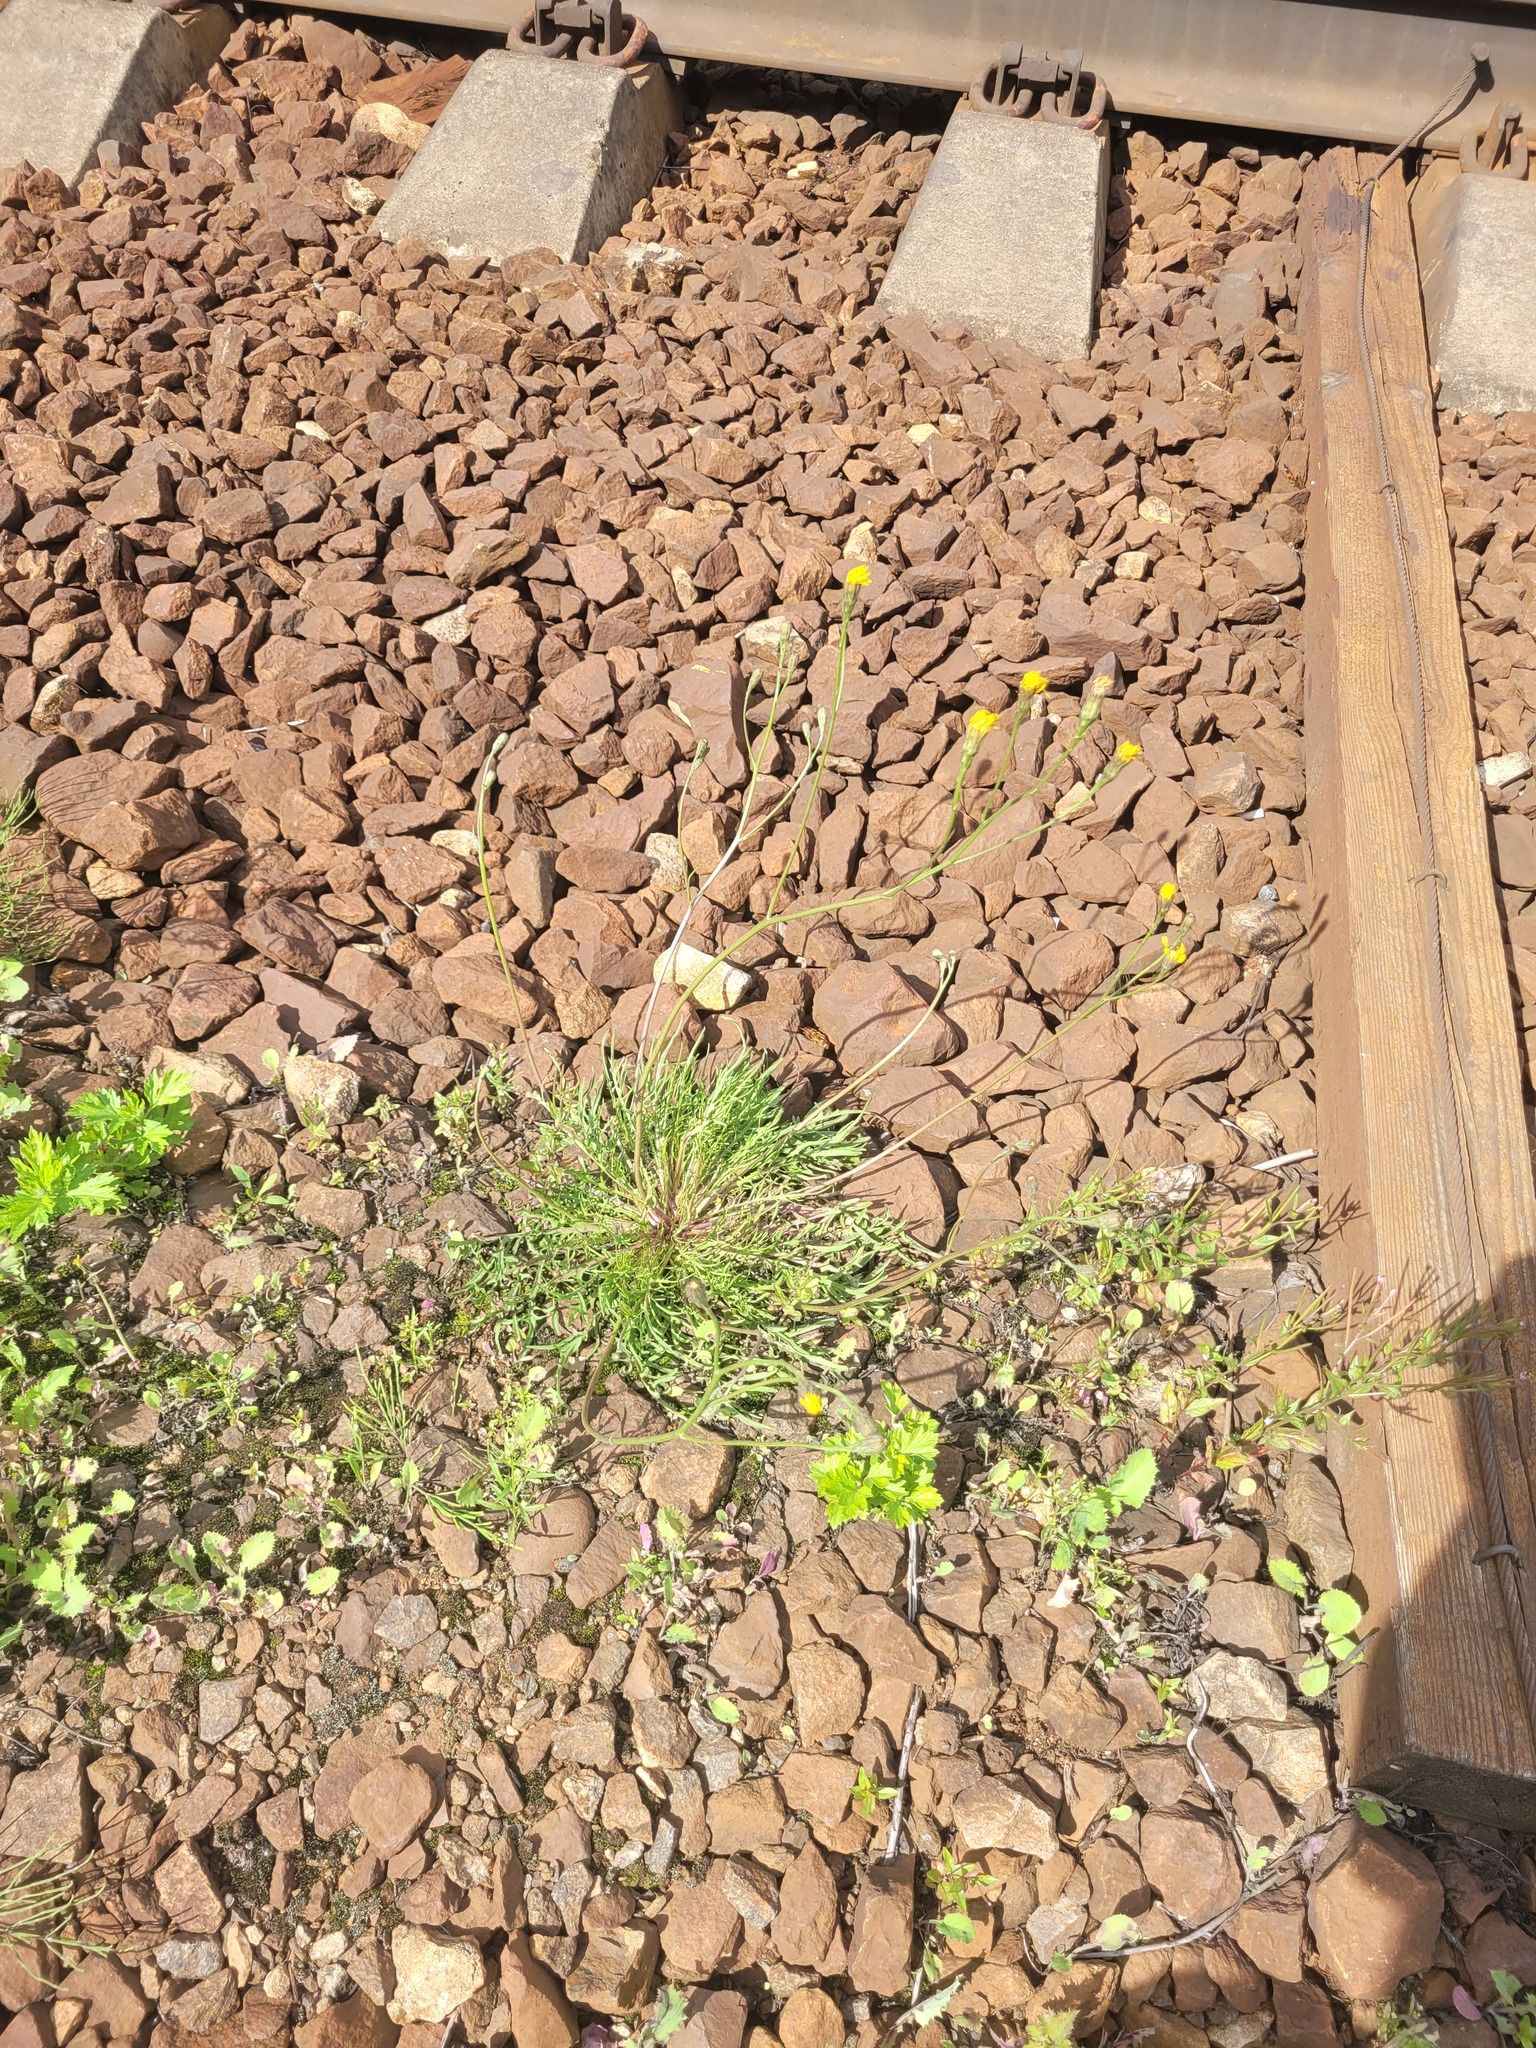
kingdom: Plantae
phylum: Tracheophyta
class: Magnoliopsida
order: Asterales
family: Asteraceae
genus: Scorzoneroides
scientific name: Scorzoneroides autumnalis
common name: Autumn hawkbit
